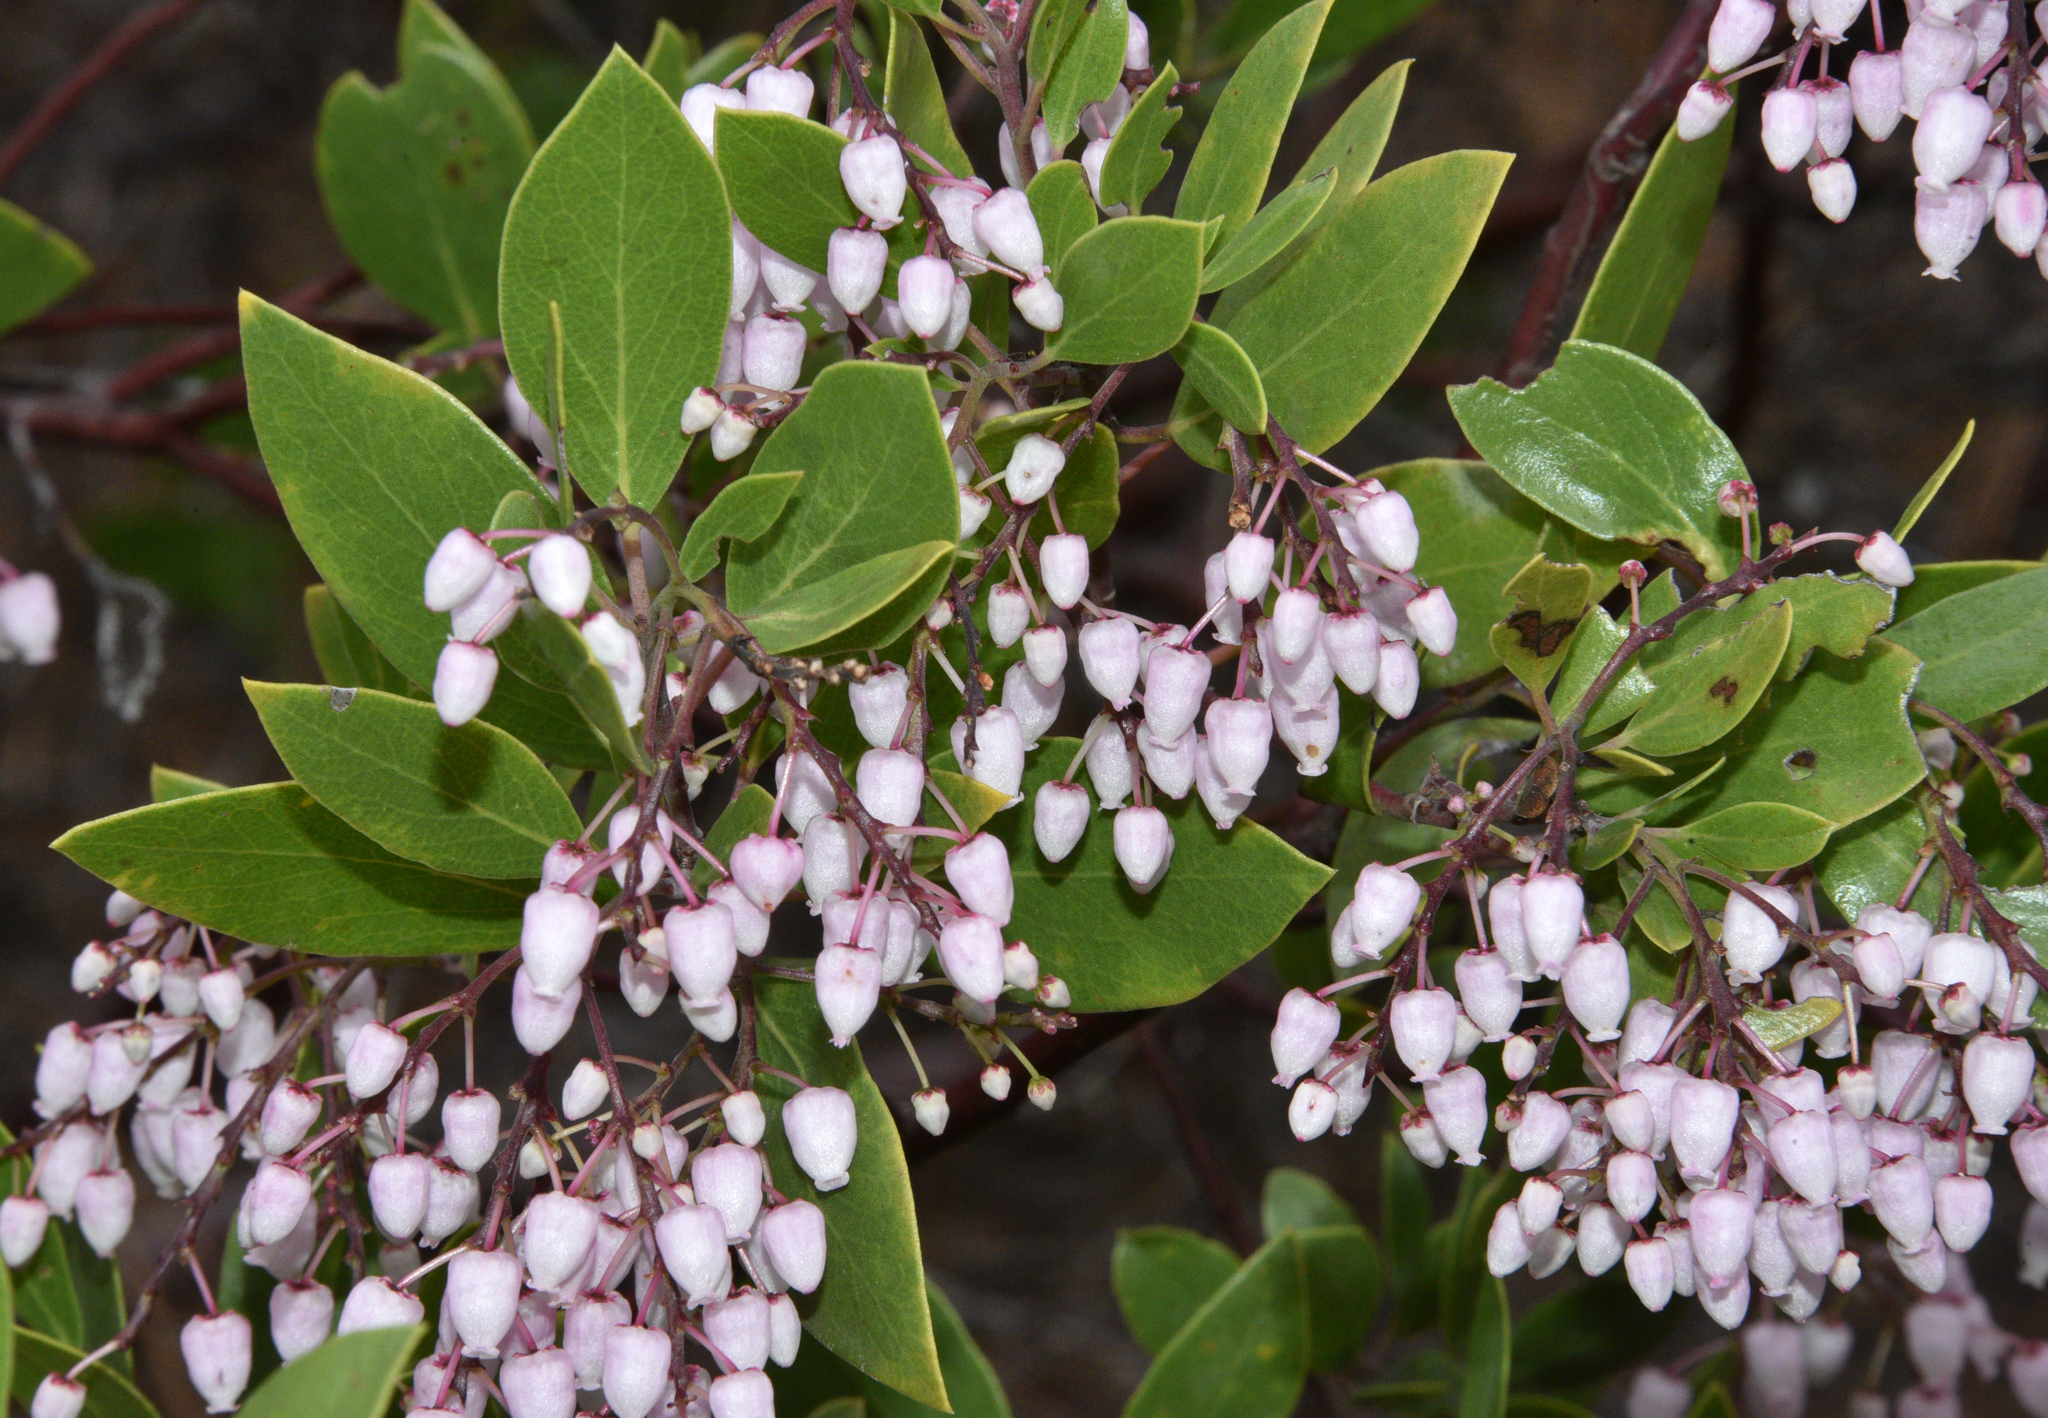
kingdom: Plantae
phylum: Tracheophyta
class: Magnoliopsida
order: Ericales
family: Ericaceae
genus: Arctostaphylos
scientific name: Arctostaphylos stanfordiana
